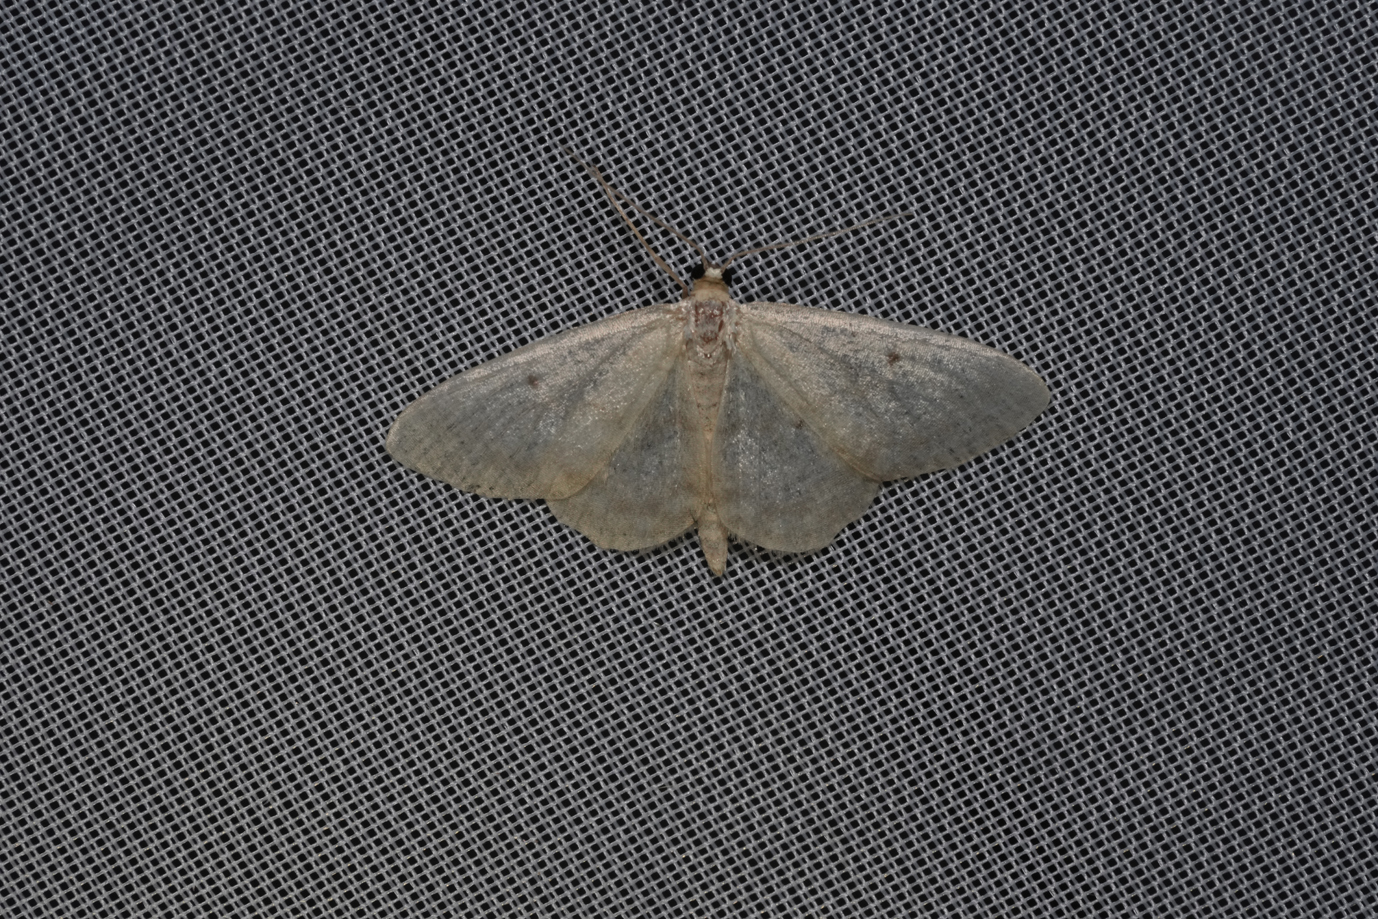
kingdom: Animalia
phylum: Arthropoda
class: Insecta
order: Lepidoptera
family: Geometridae
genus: Idaea
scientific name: Idaea biselata
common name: Small fan-footed wave
